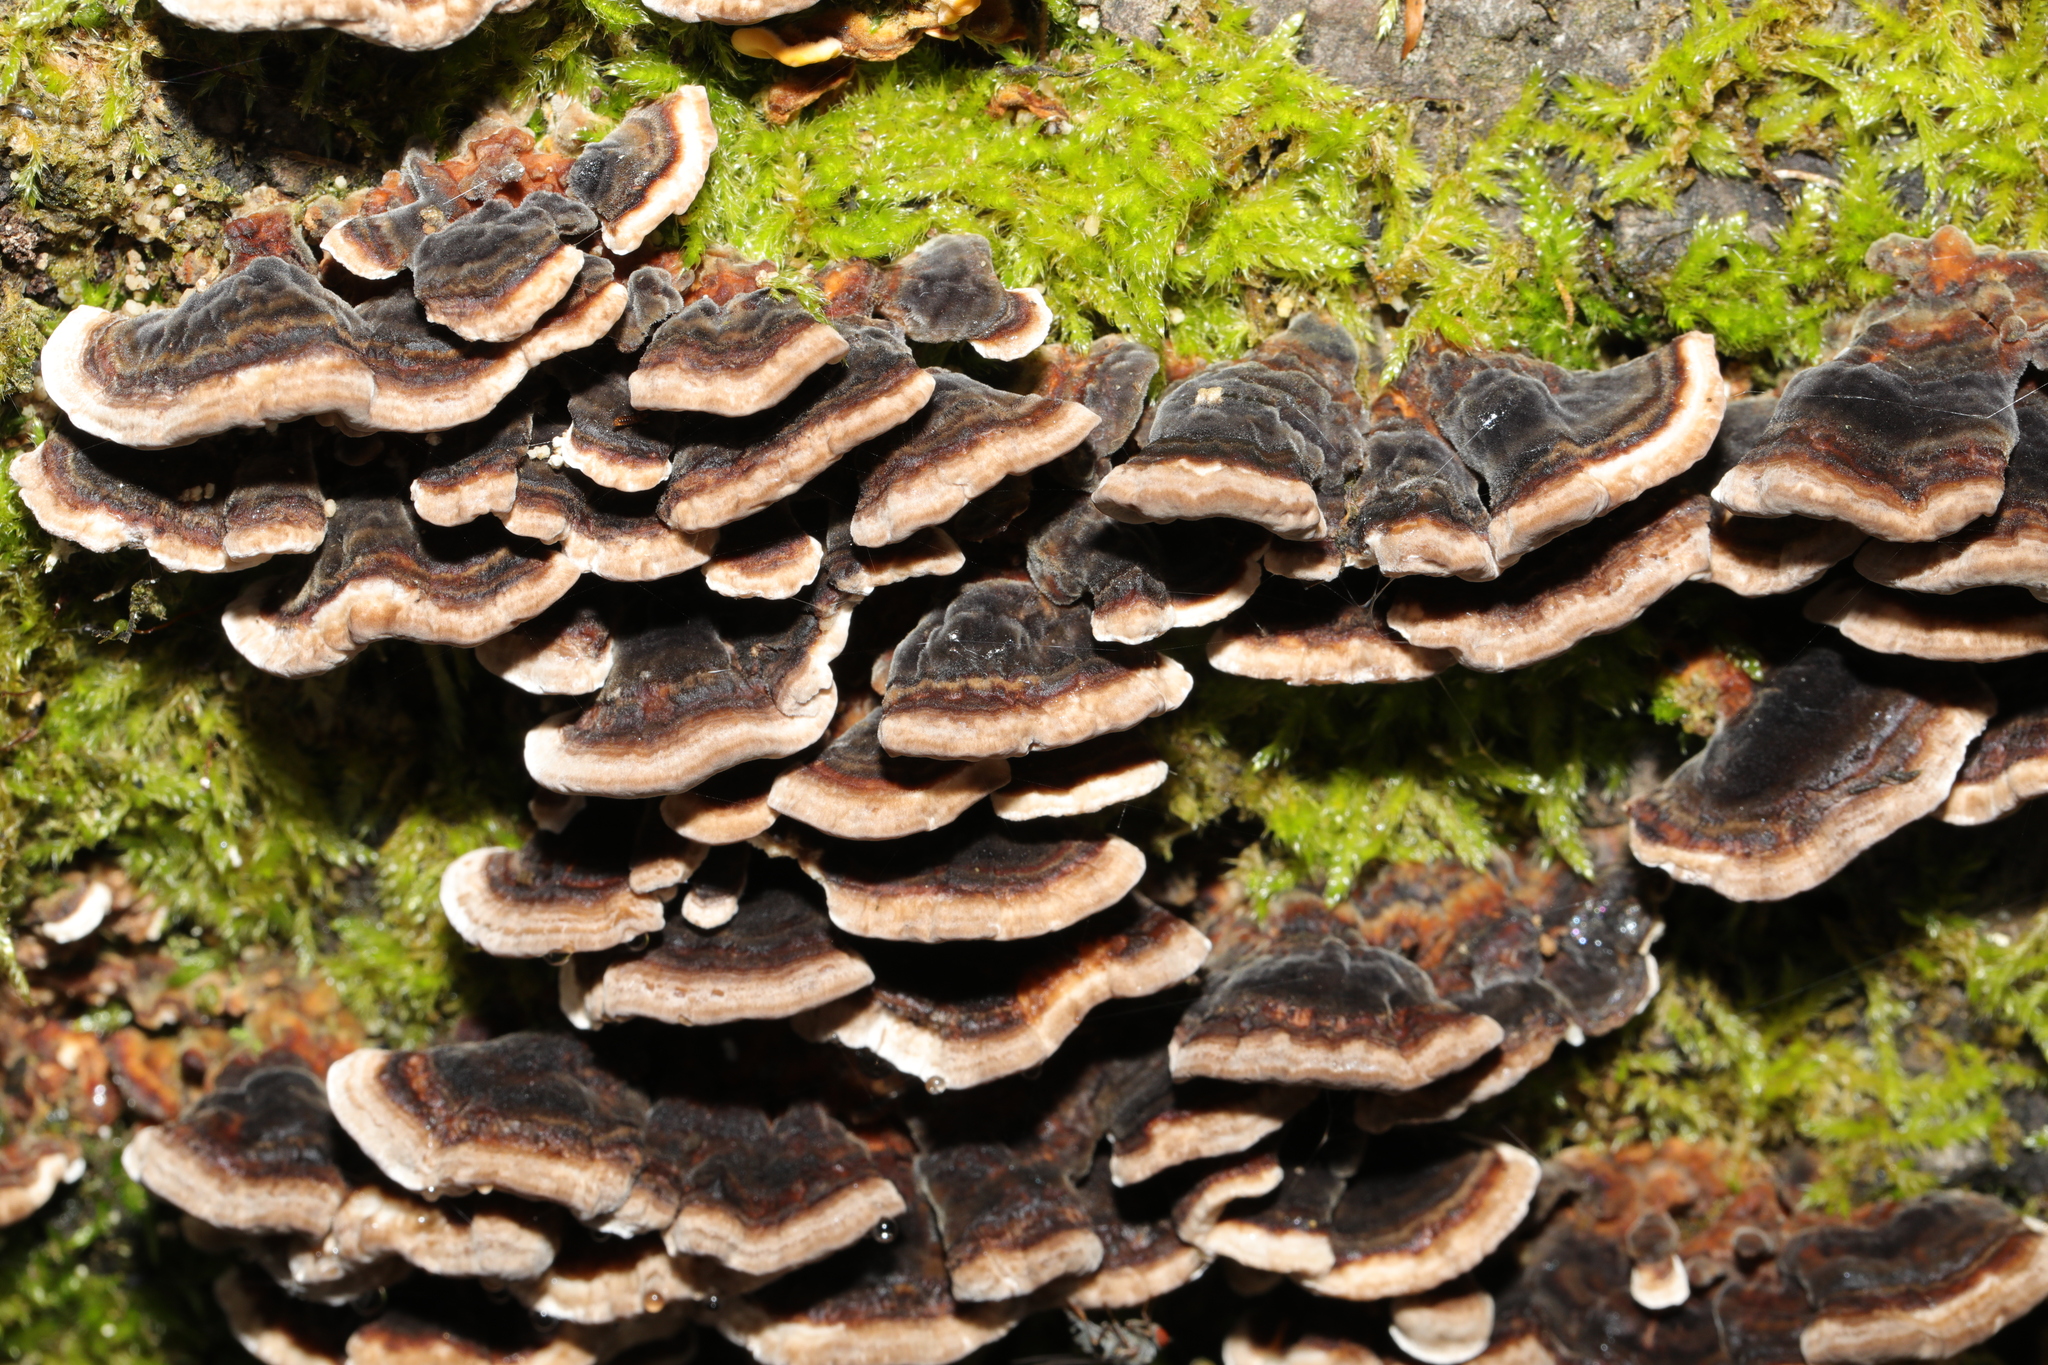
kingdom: Fungi
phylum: Basidiomycota
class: Agaricomycetes
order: Polyporales
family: Polyporaceae
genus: Trametes
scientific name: Trametes versicolor
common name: Turkeytail
